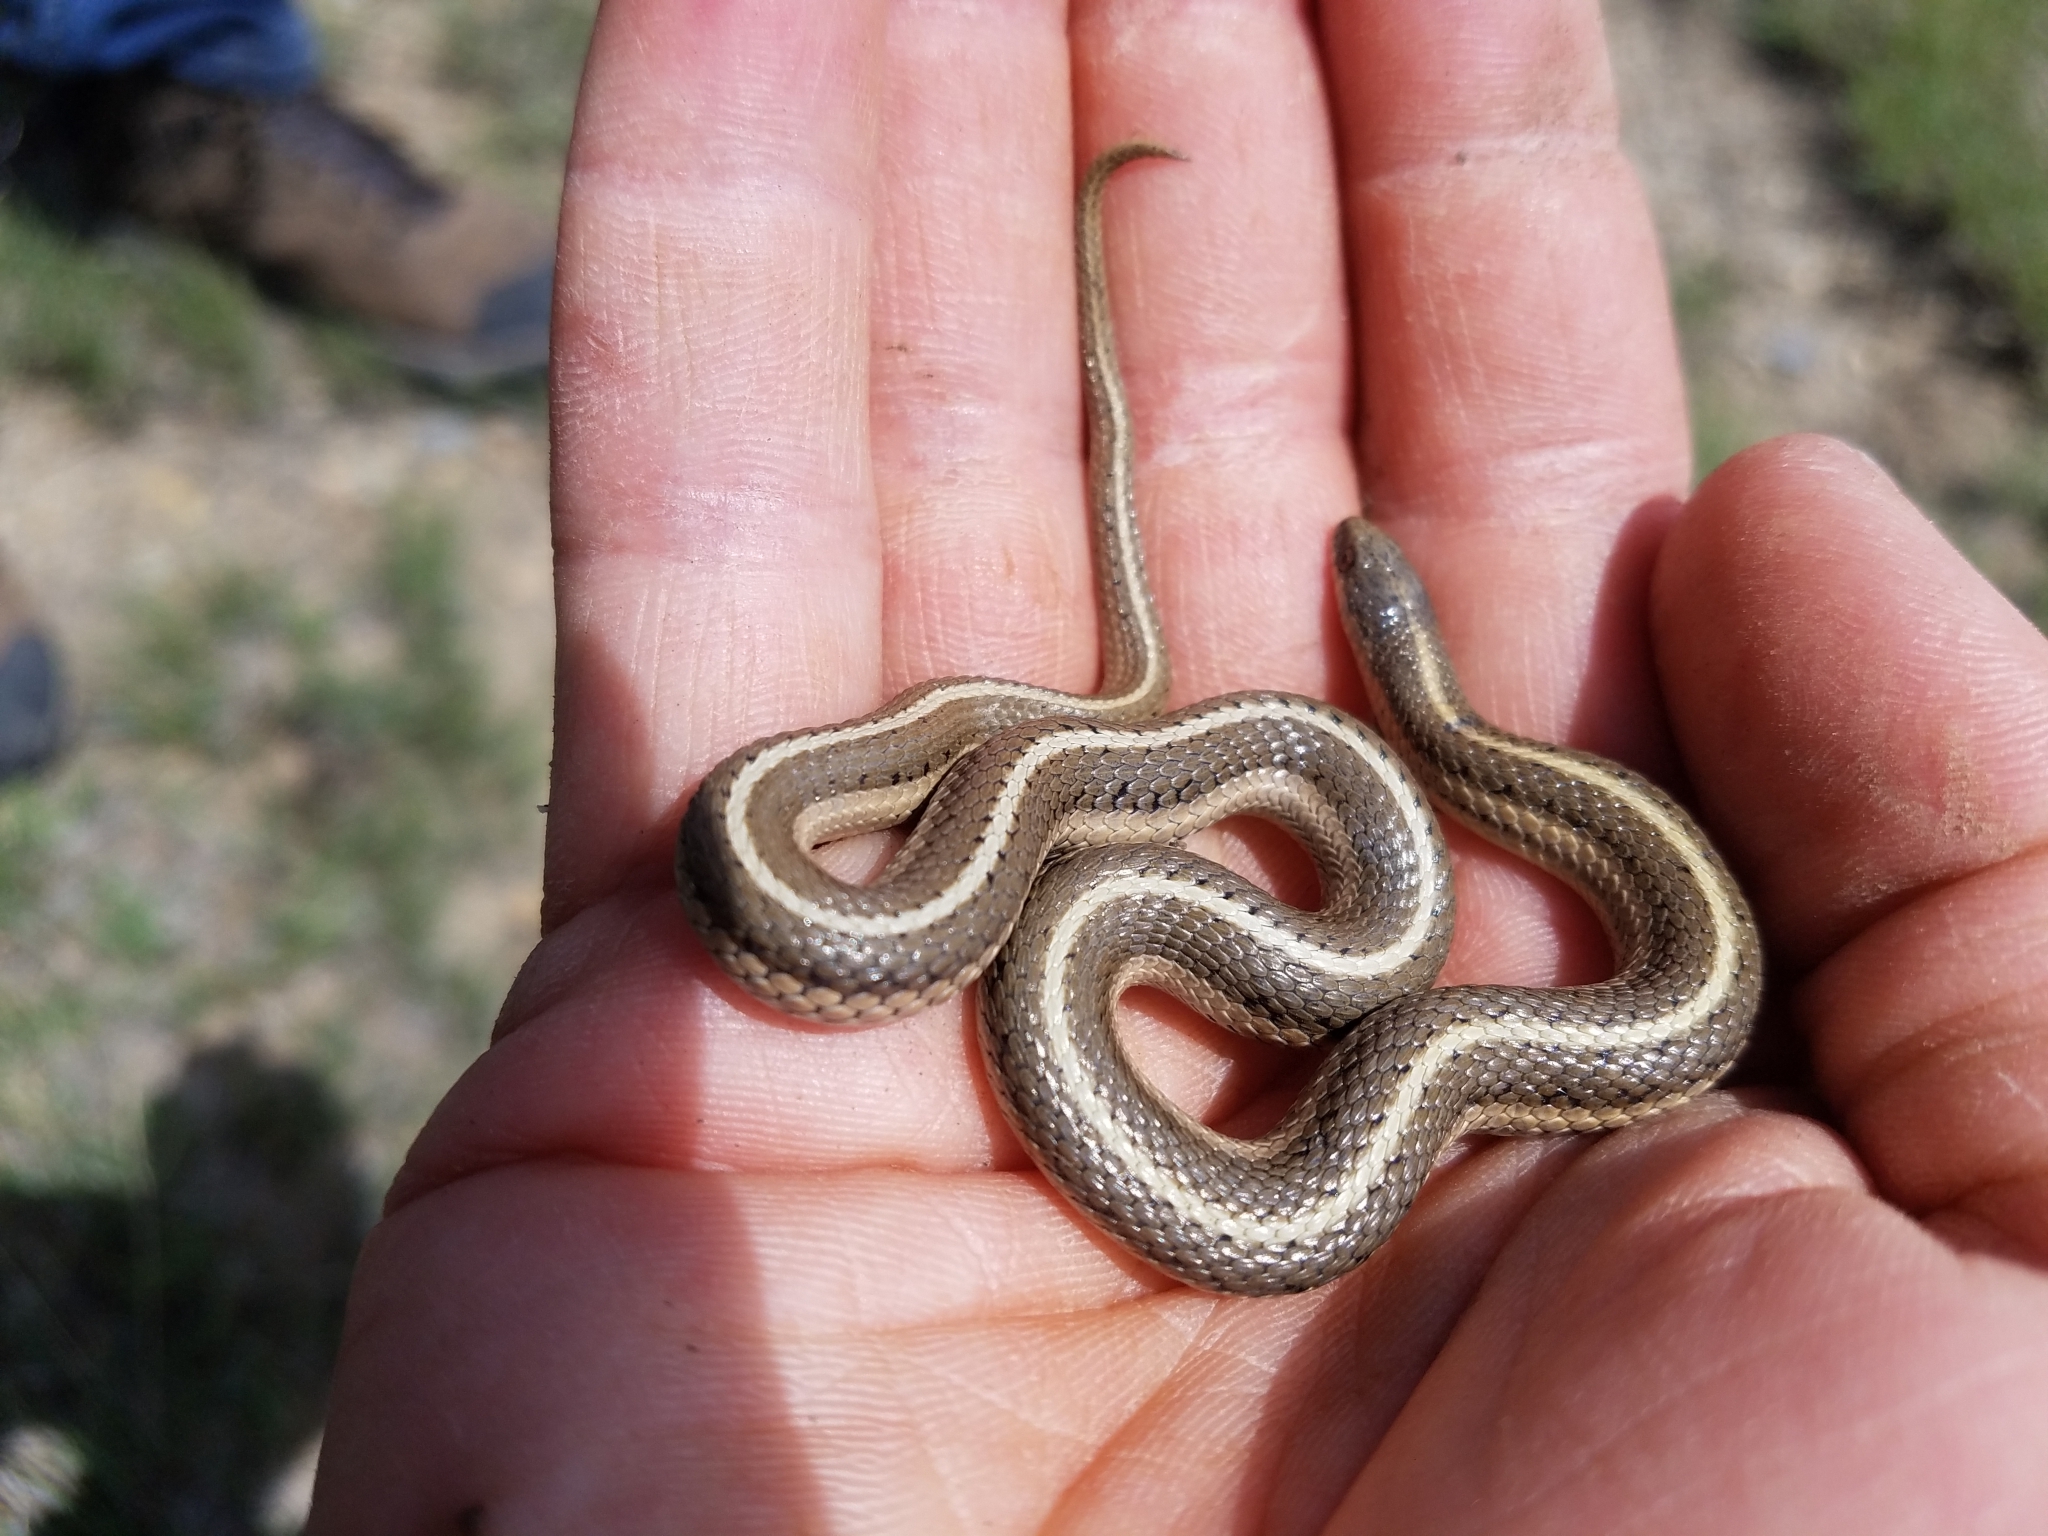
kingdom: Animalia
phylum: Chordata
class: Squamata
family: Colubridae
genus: Tropidoclonion
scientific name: Tropidoclonion lineatum
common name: Lined snake
